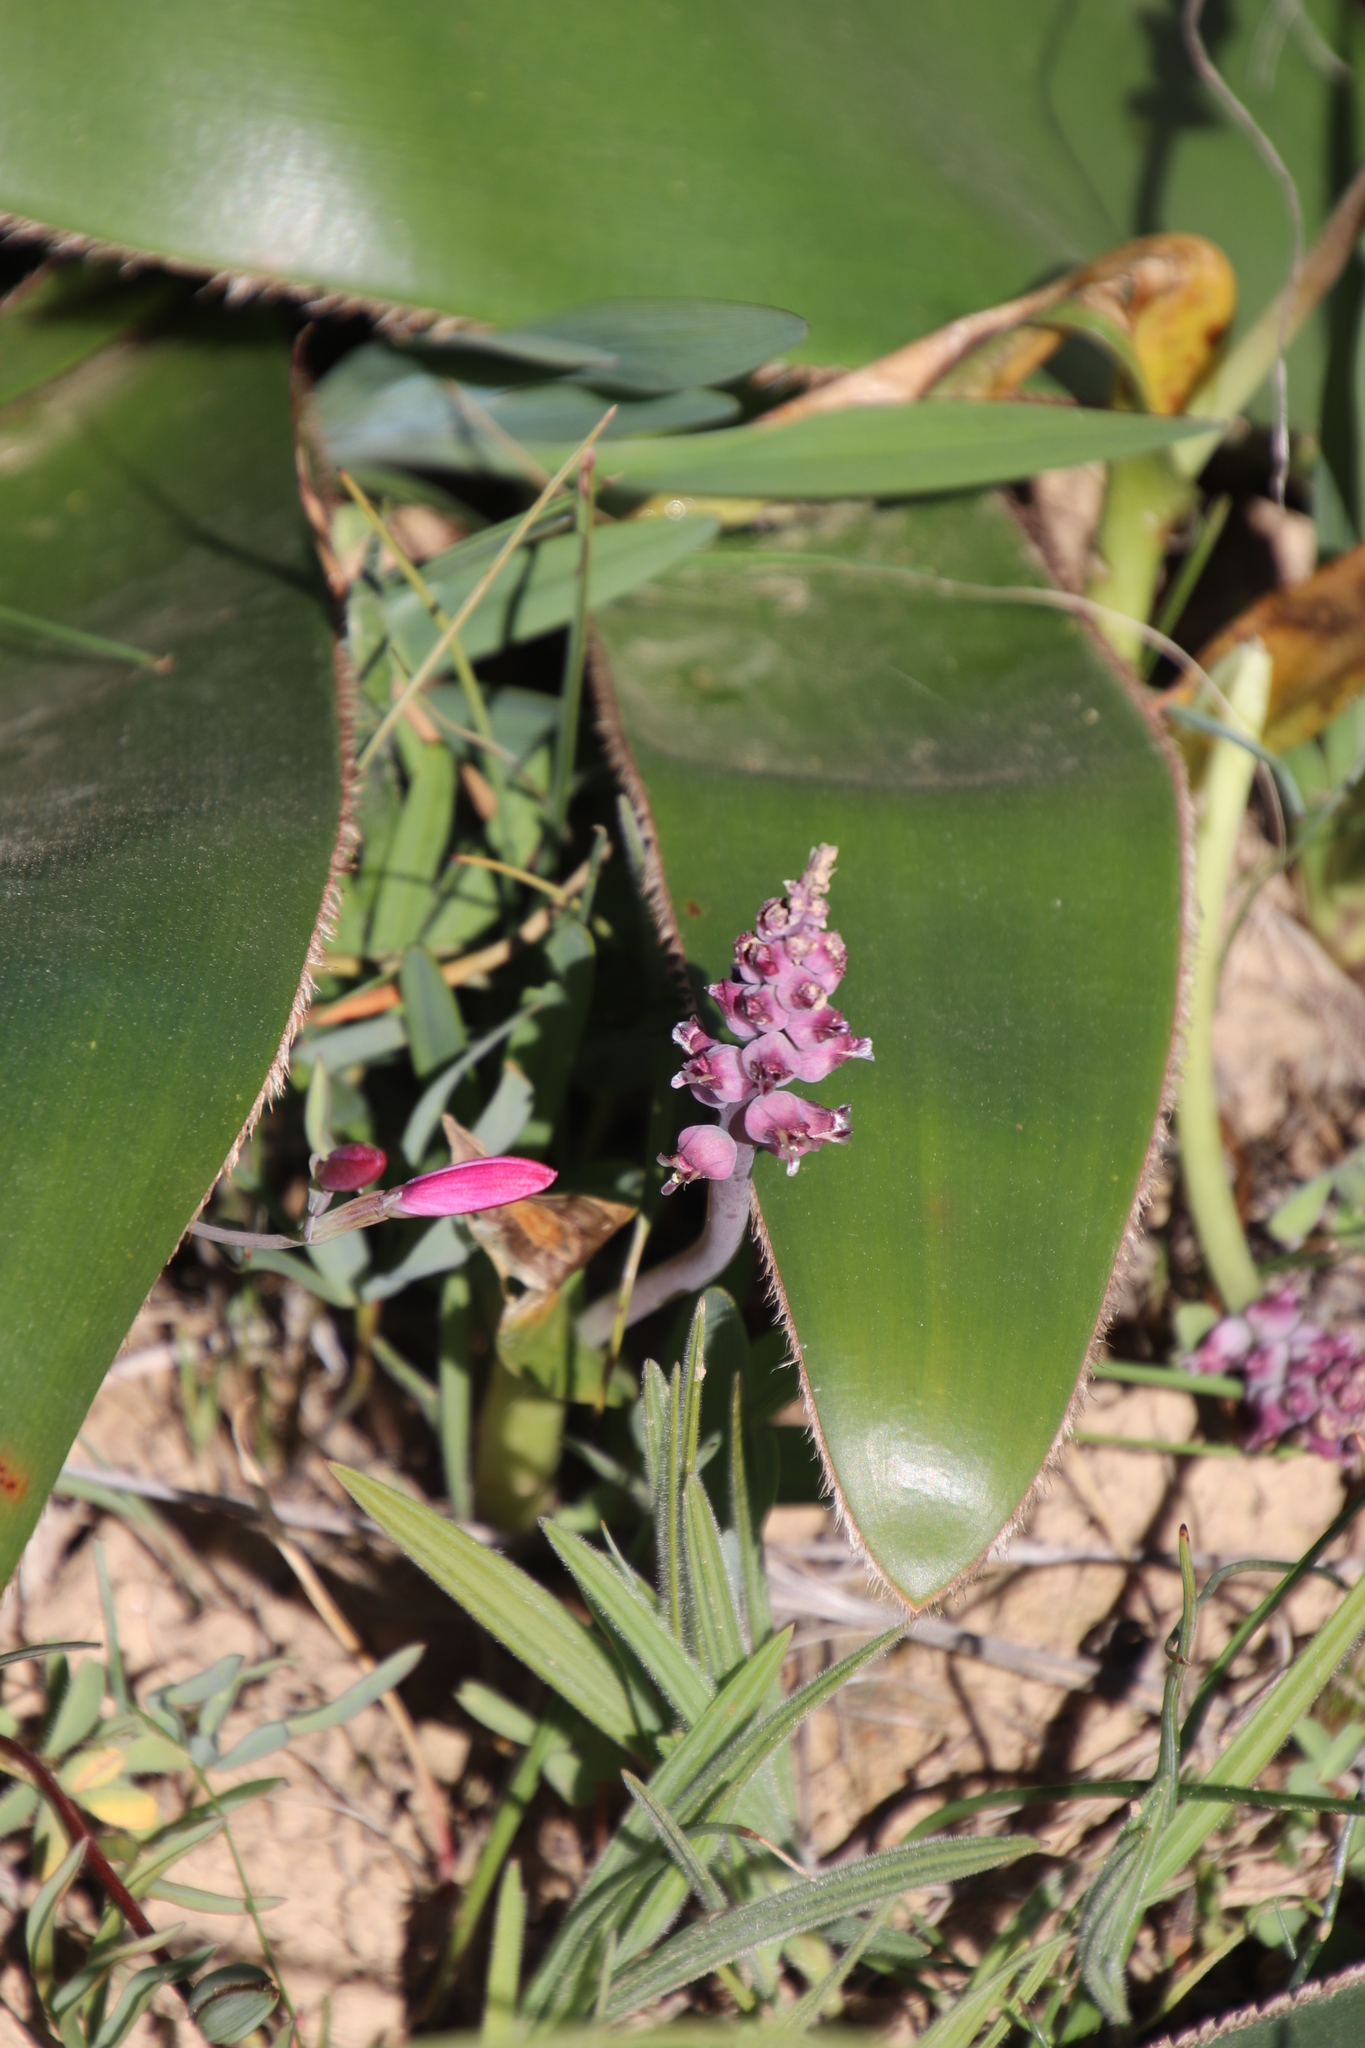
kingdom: Plantae
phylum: Tracheophyta
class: Liliopsida
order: Asparagales
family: Asparagaceae
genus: Lachenalia
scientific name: Lachenalia elegans
